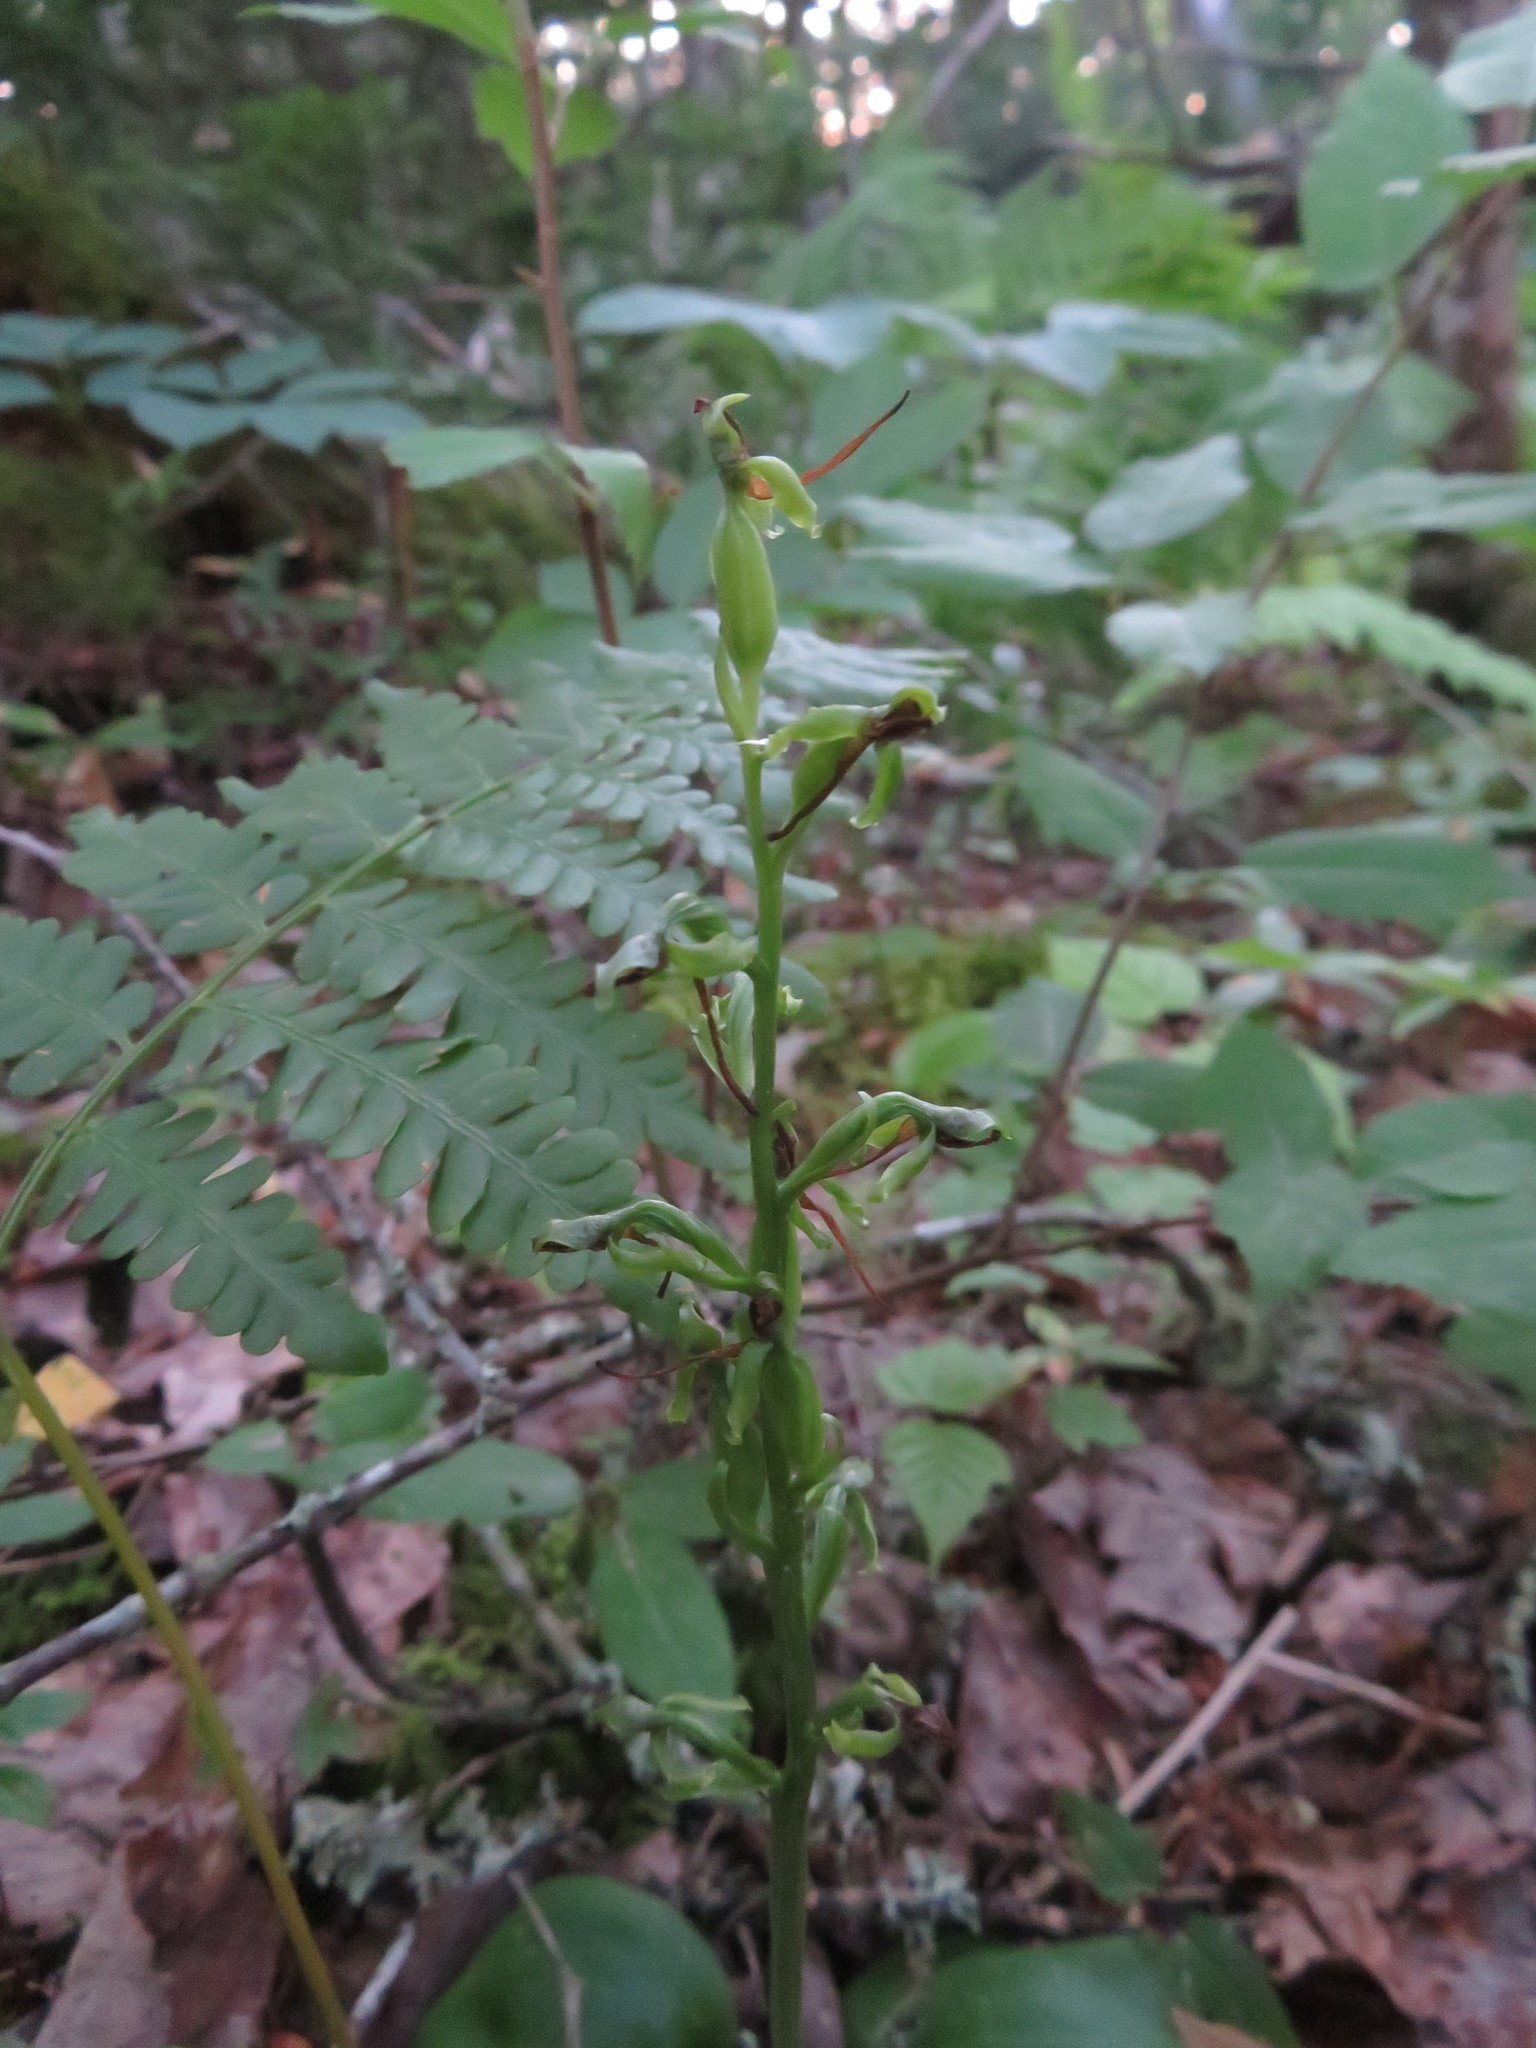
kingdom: Plantae
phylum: Tracheophyta
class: Liliopsida
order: Asparagales
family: Orchidaceae
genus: Platanthera
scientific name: Platanthera hookeri
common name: Hooker's orchid
